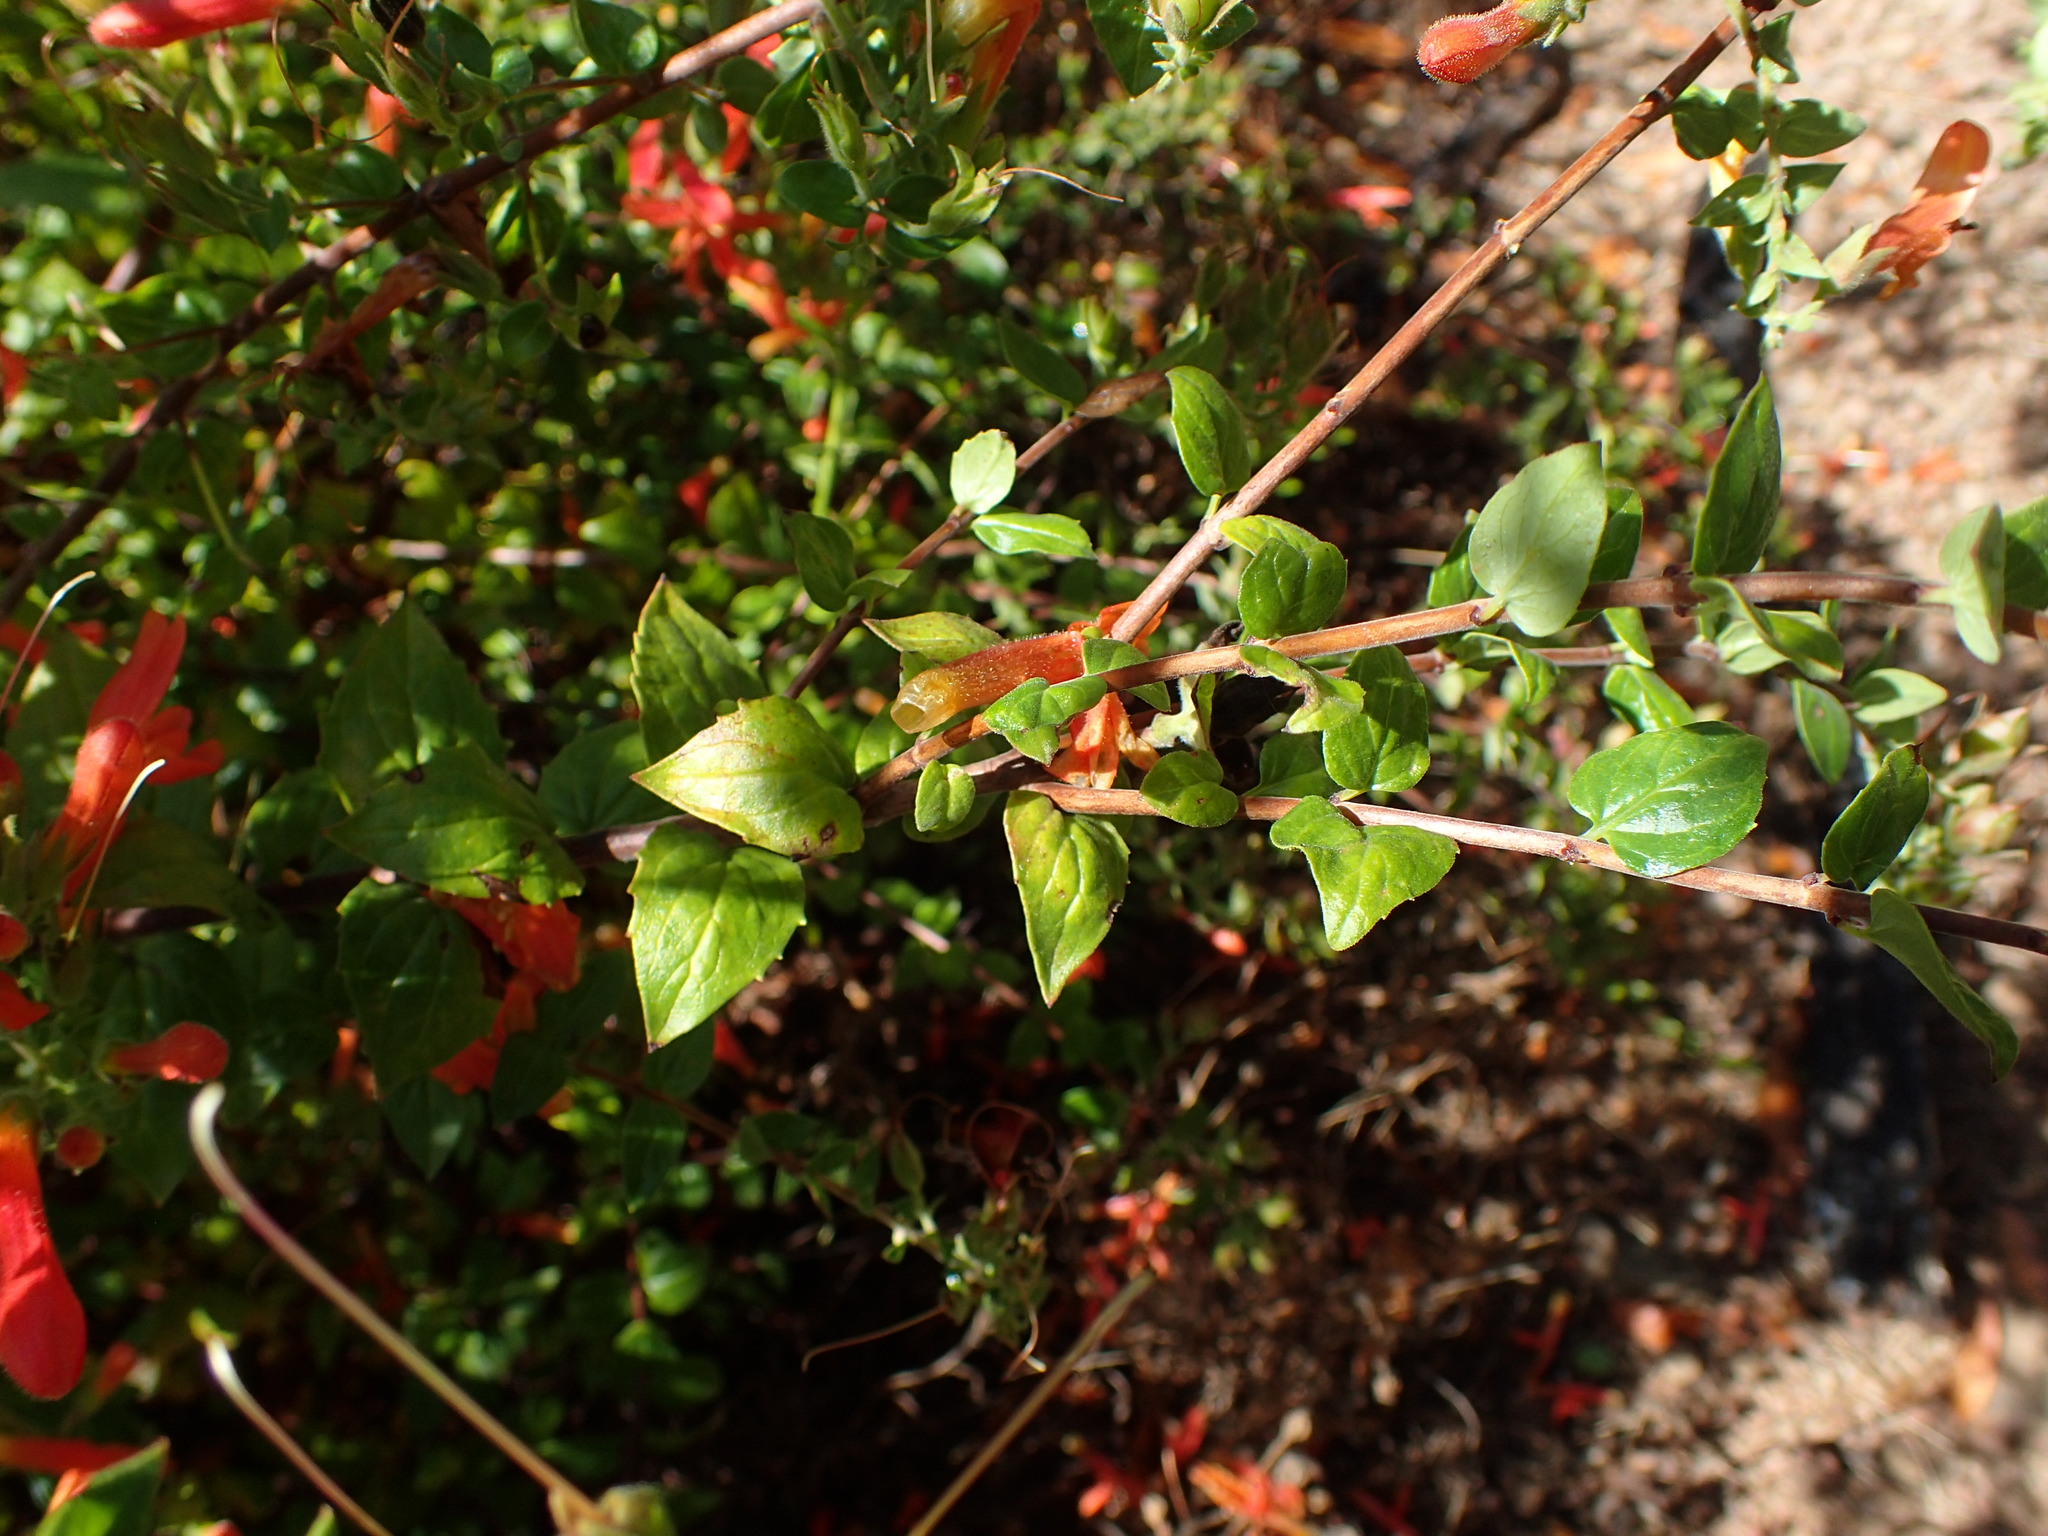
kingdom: Plantae
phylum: Tracheophyta
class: Magnoliopsida
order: Lamiales
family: Plantaginaceae
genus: Keckiella
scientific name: Keckiella cordifolia
